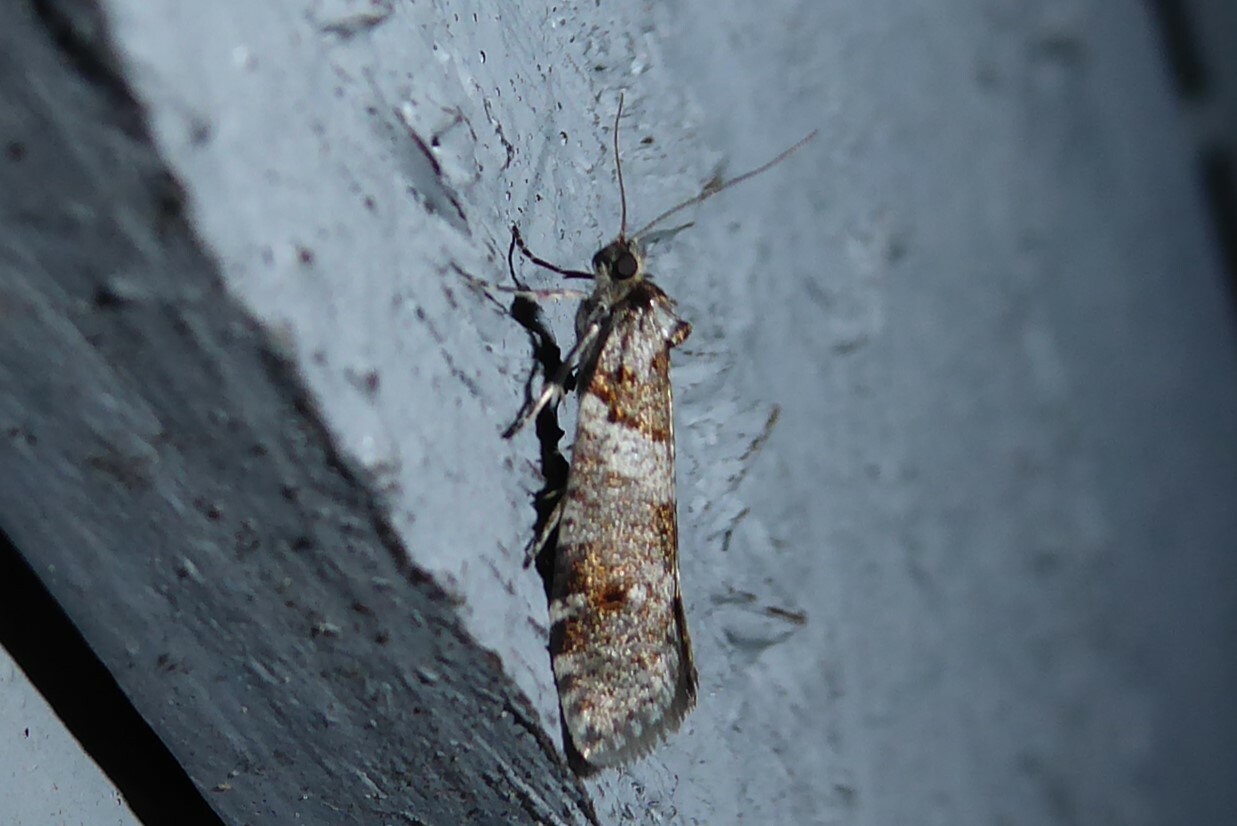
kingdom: Animalia
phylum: Arthropoda
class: Insecta
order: Lepidoptera
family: Psychidae
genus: Lepidoscia
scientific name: Lepidoscia heliochares
